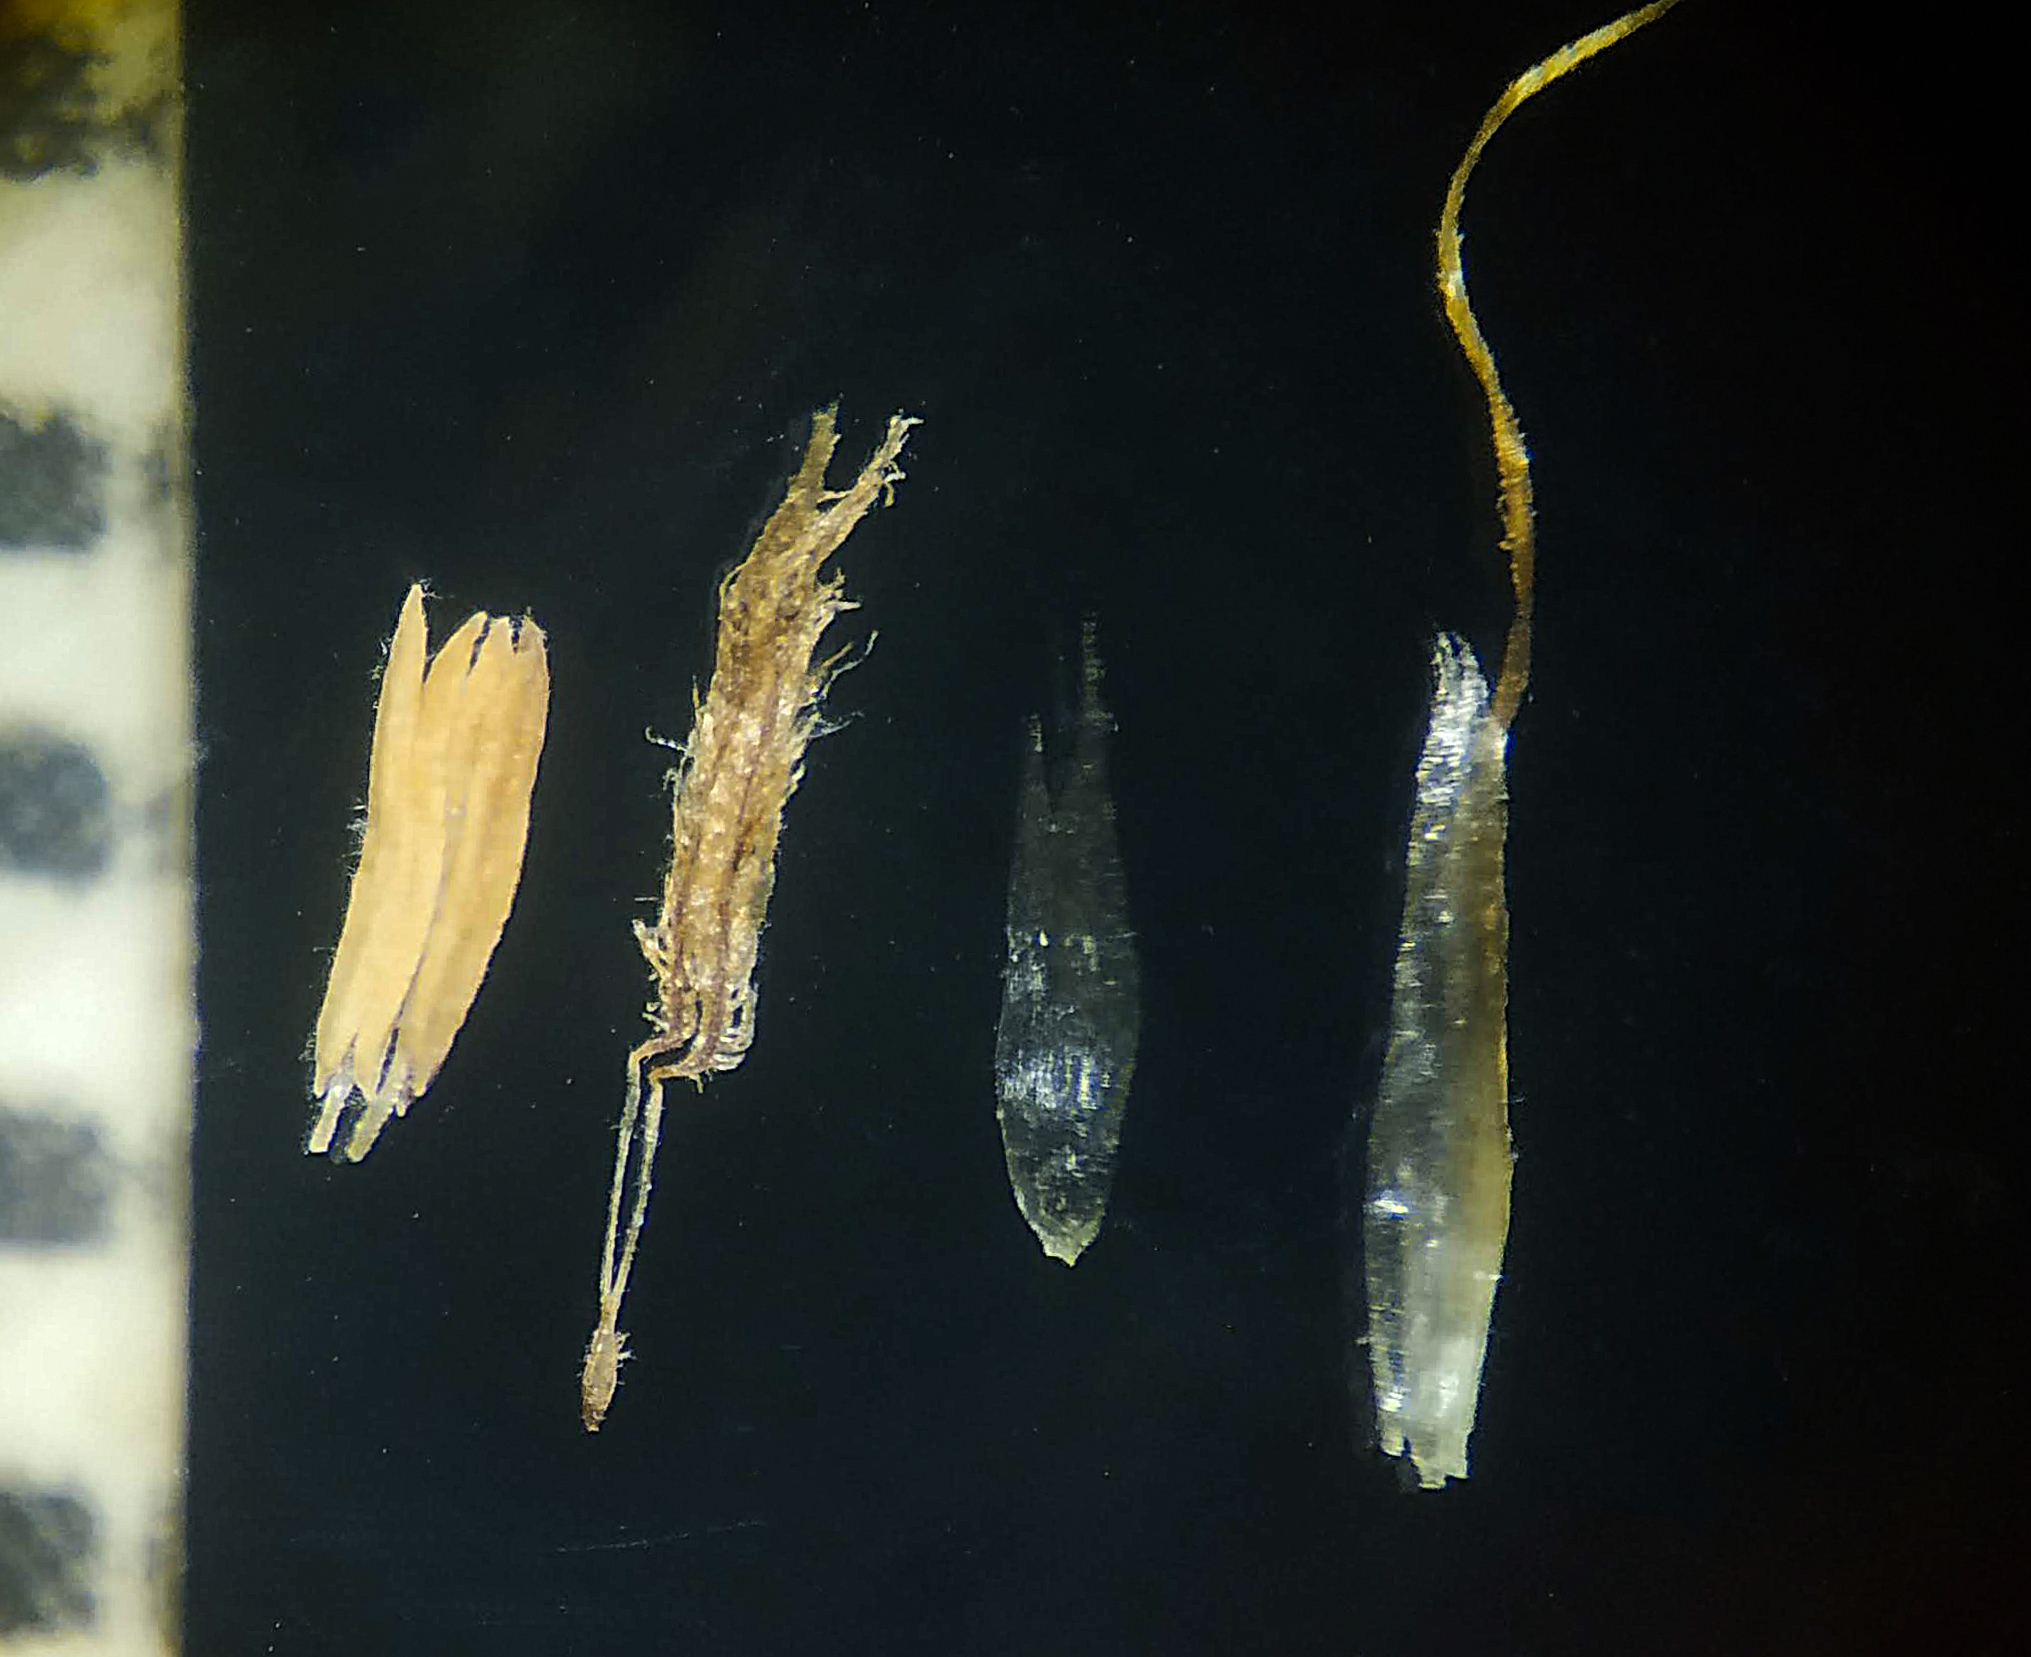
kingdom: Plantae
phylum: Tracheophyta
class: Liliopsida
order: Poales
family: Poaceae
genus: Pogonatherum
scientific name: Pogonatherum paniceum
